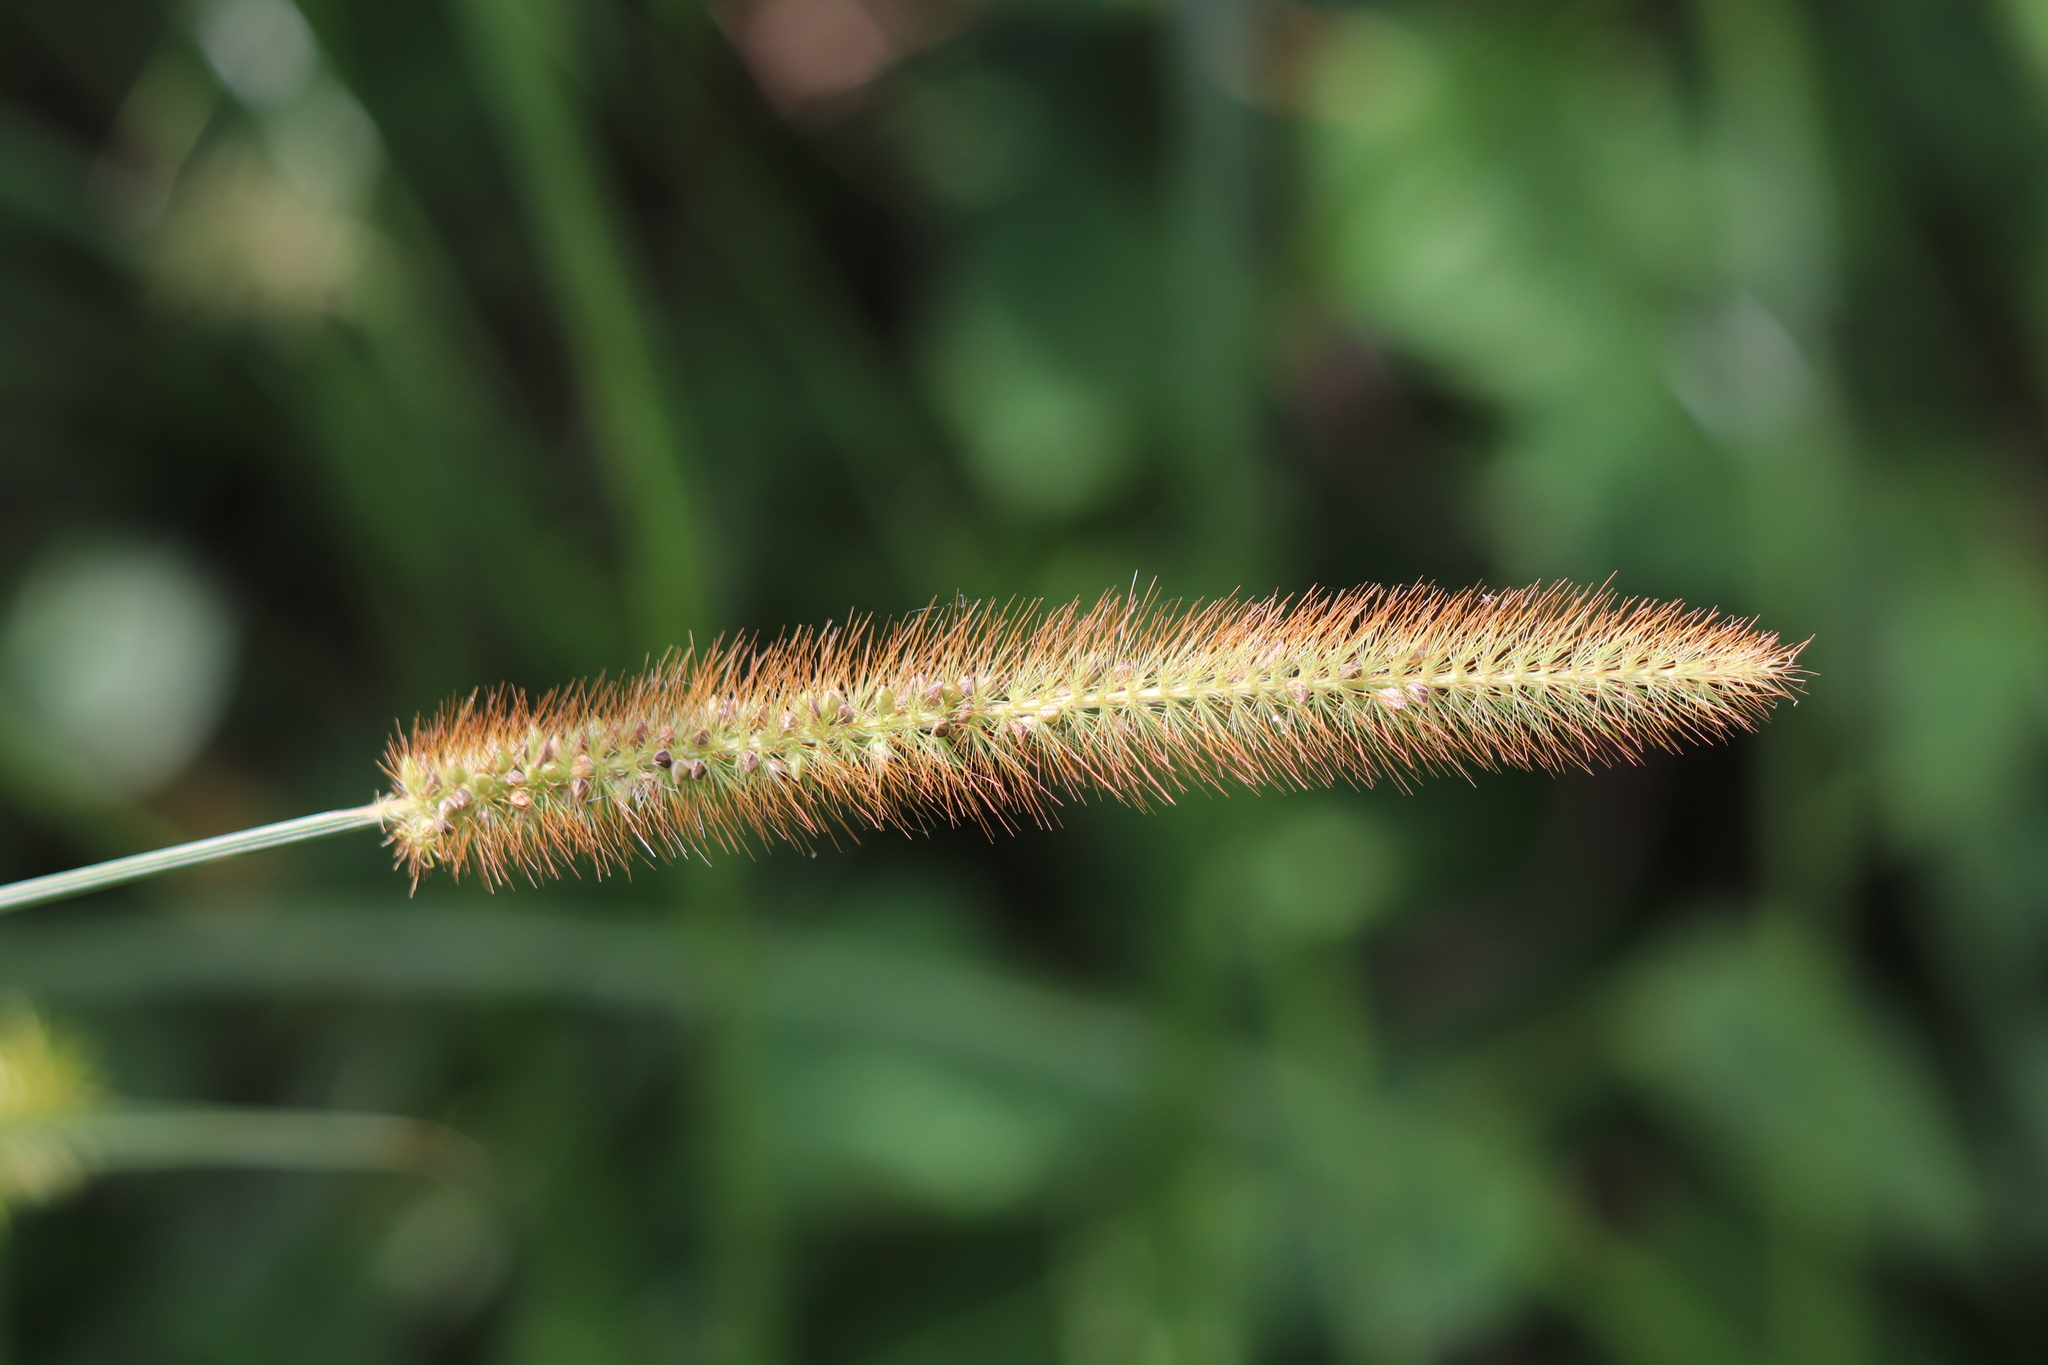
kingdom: Plantae
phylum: Tracheophyta
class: Liliopsida
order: Poales
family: Poaceae
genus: Setaria
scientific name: Setaria pumila
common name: Yellow bristle-grass
